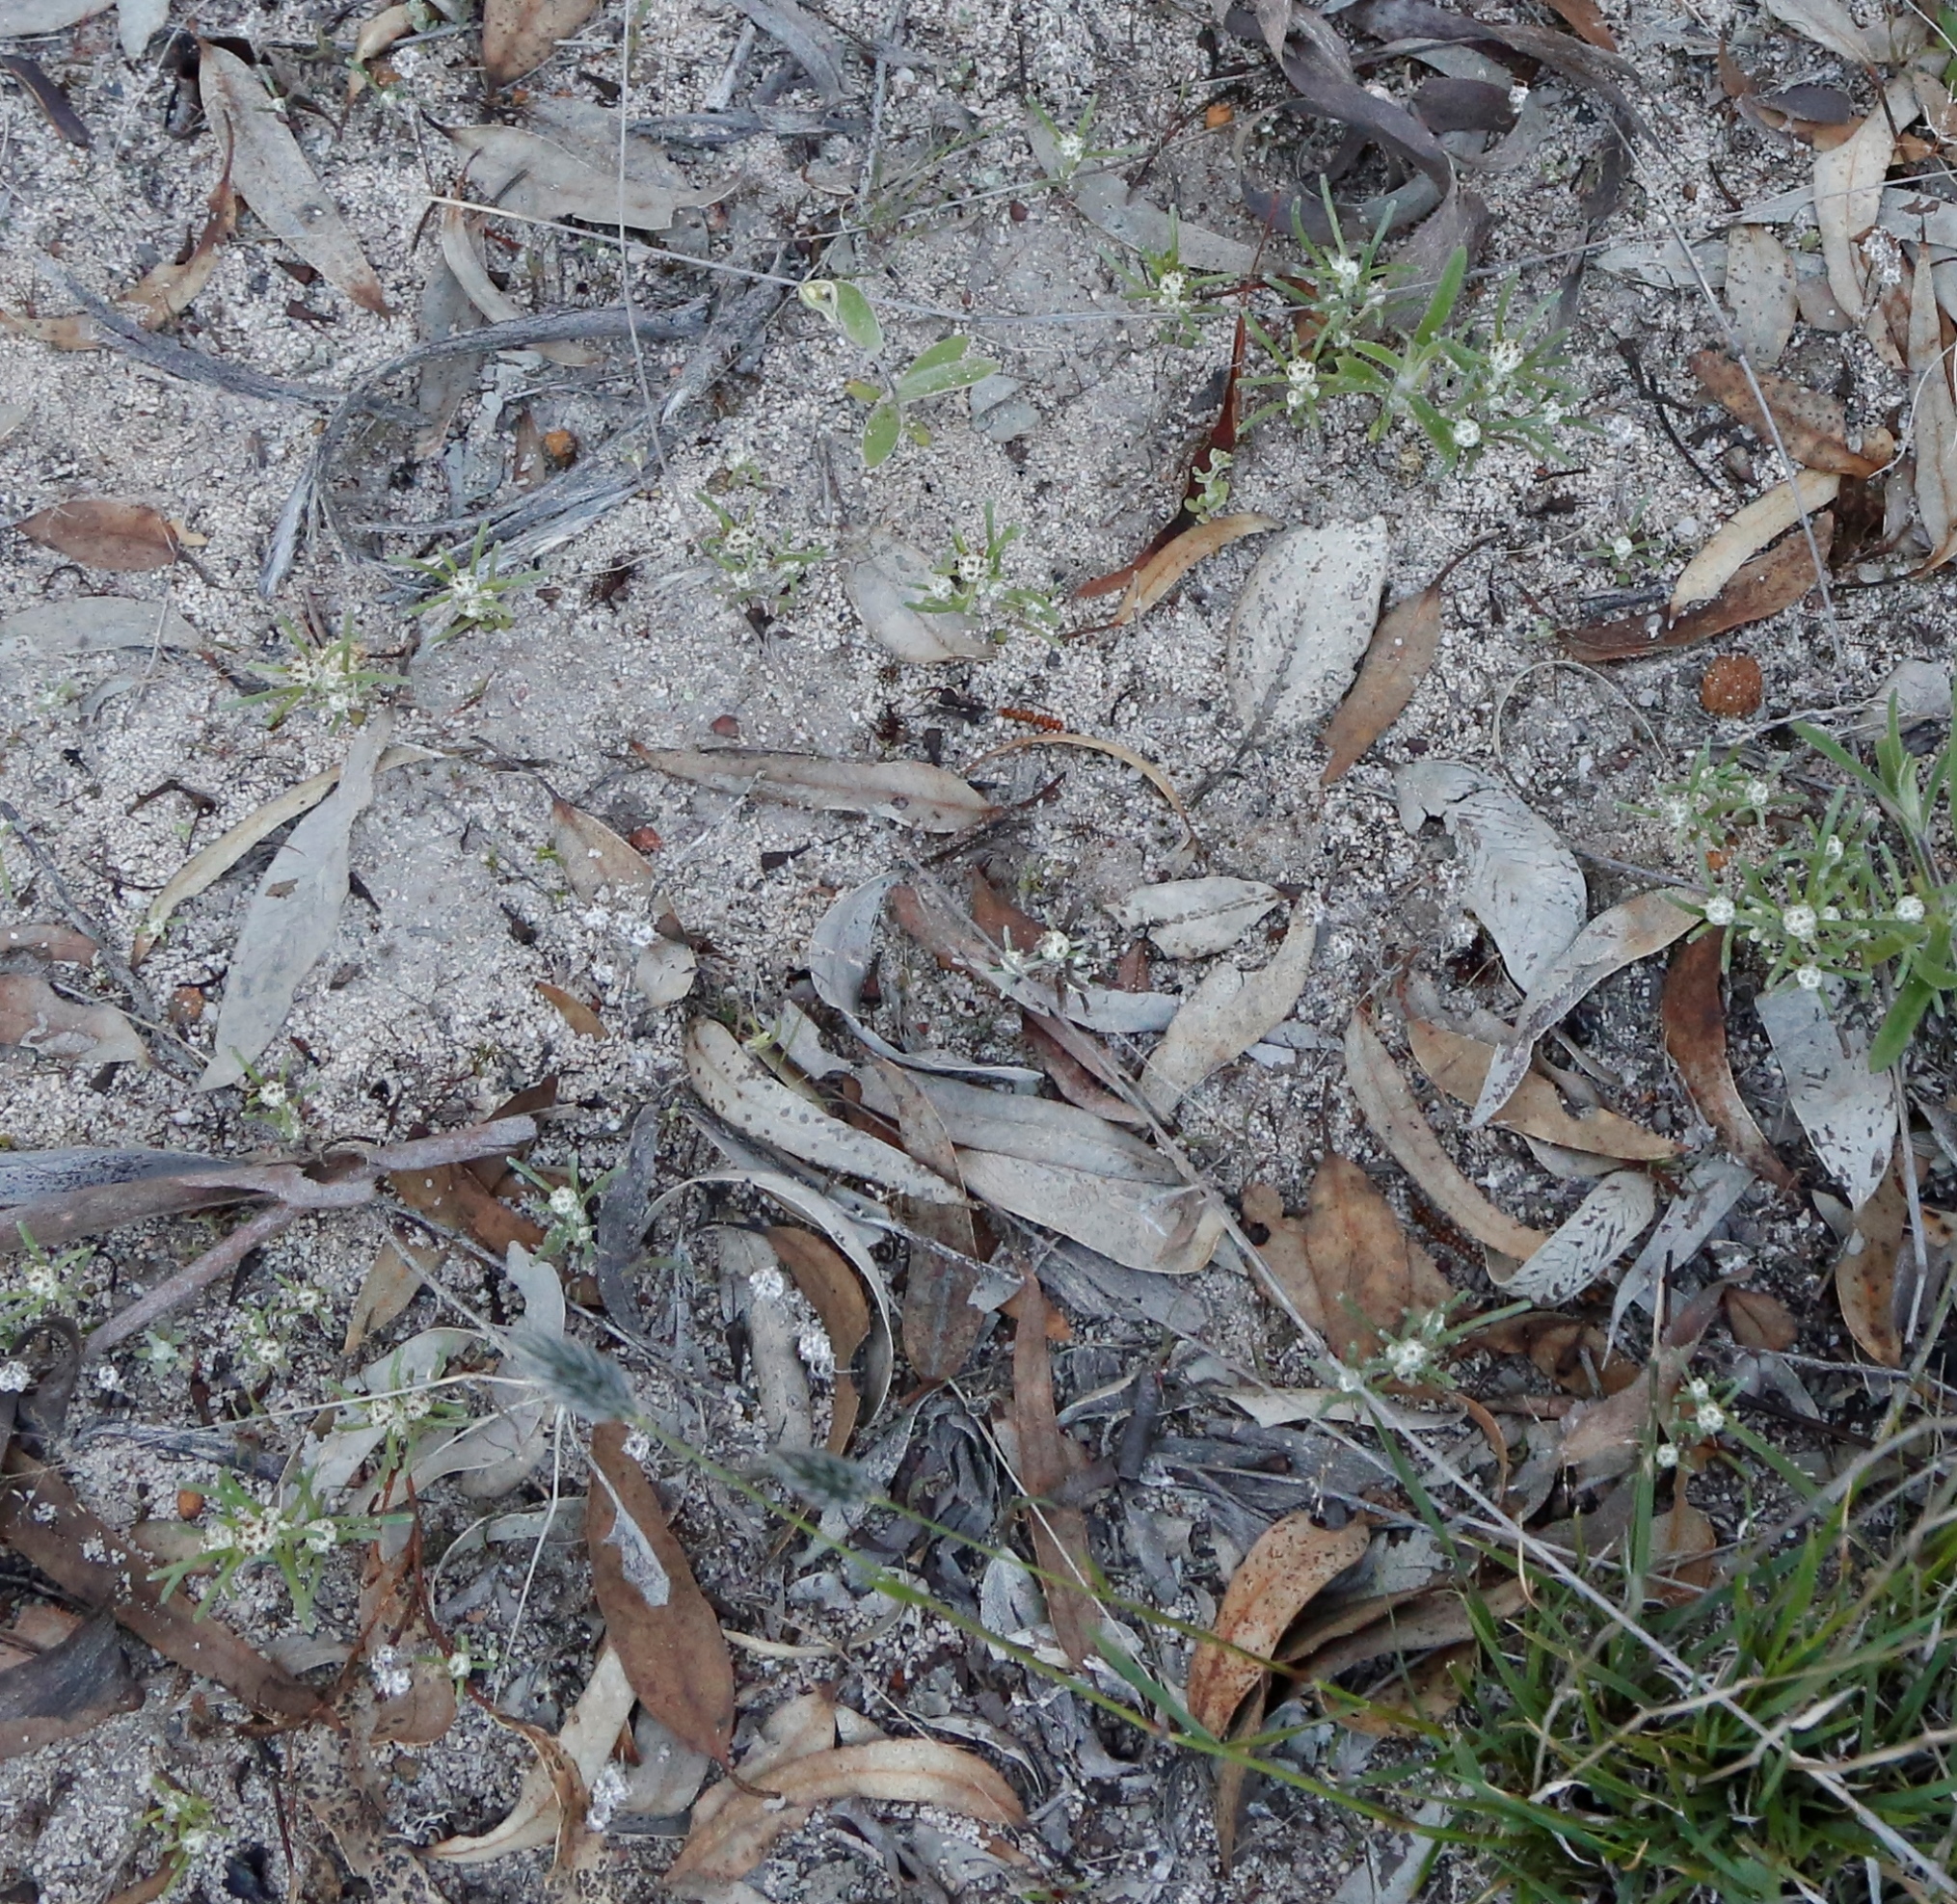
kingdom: Plantae
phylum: Tracheophyta
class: Magnoliopsida
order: Asterales
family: Asteraceae
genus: Blennospora
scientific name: Blennospora drummondii
